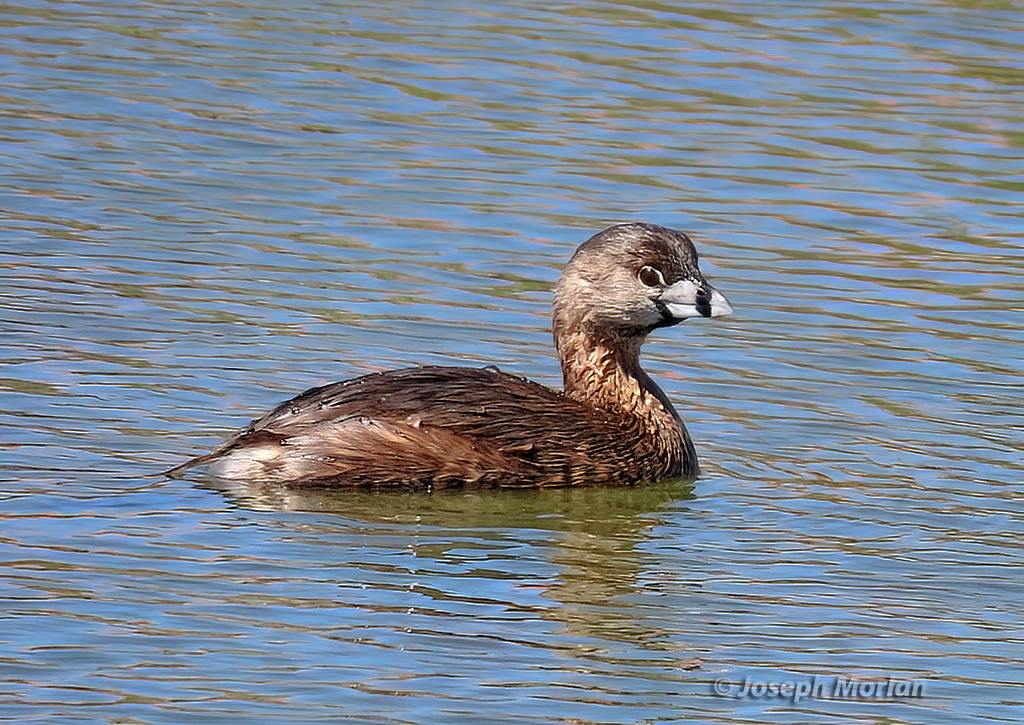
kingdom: Animalia
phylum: Chordata
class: Aves
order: Podicipediformes
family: Podicipedidae
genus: Podilymbus
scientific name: Podilymbus podiceps
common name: Pied-billed grebe
